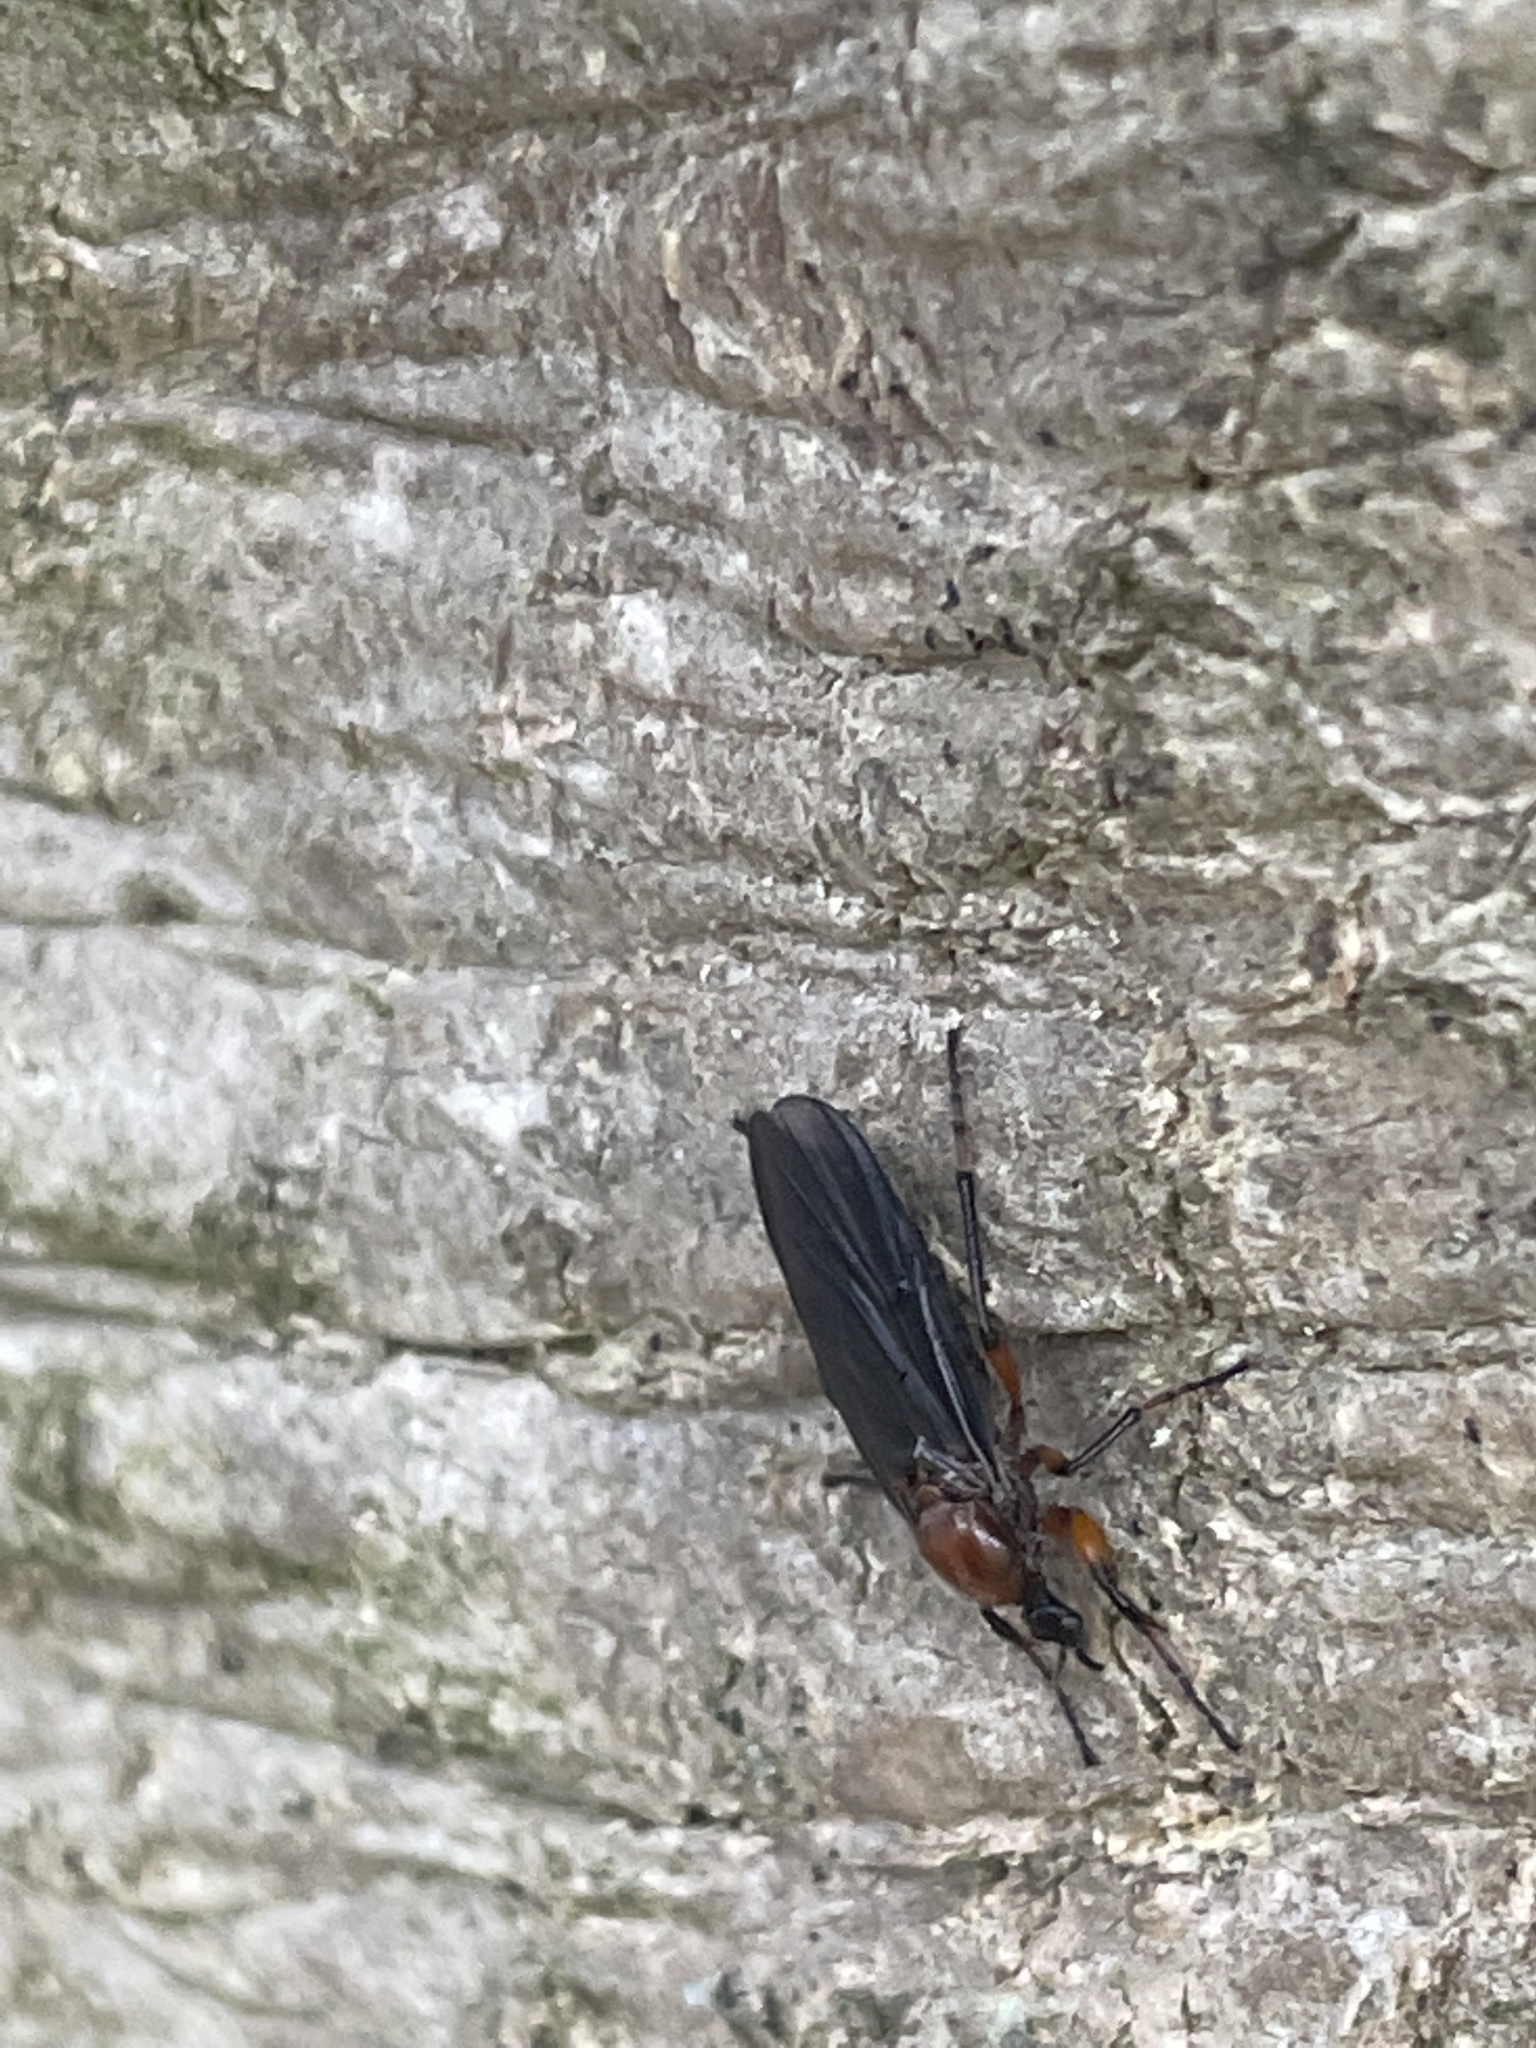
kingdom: Animalia
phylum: Arthropoda
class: Insecta
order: Diptera
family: Bibionidae
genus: Bibio
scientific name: Bibio articulatus
